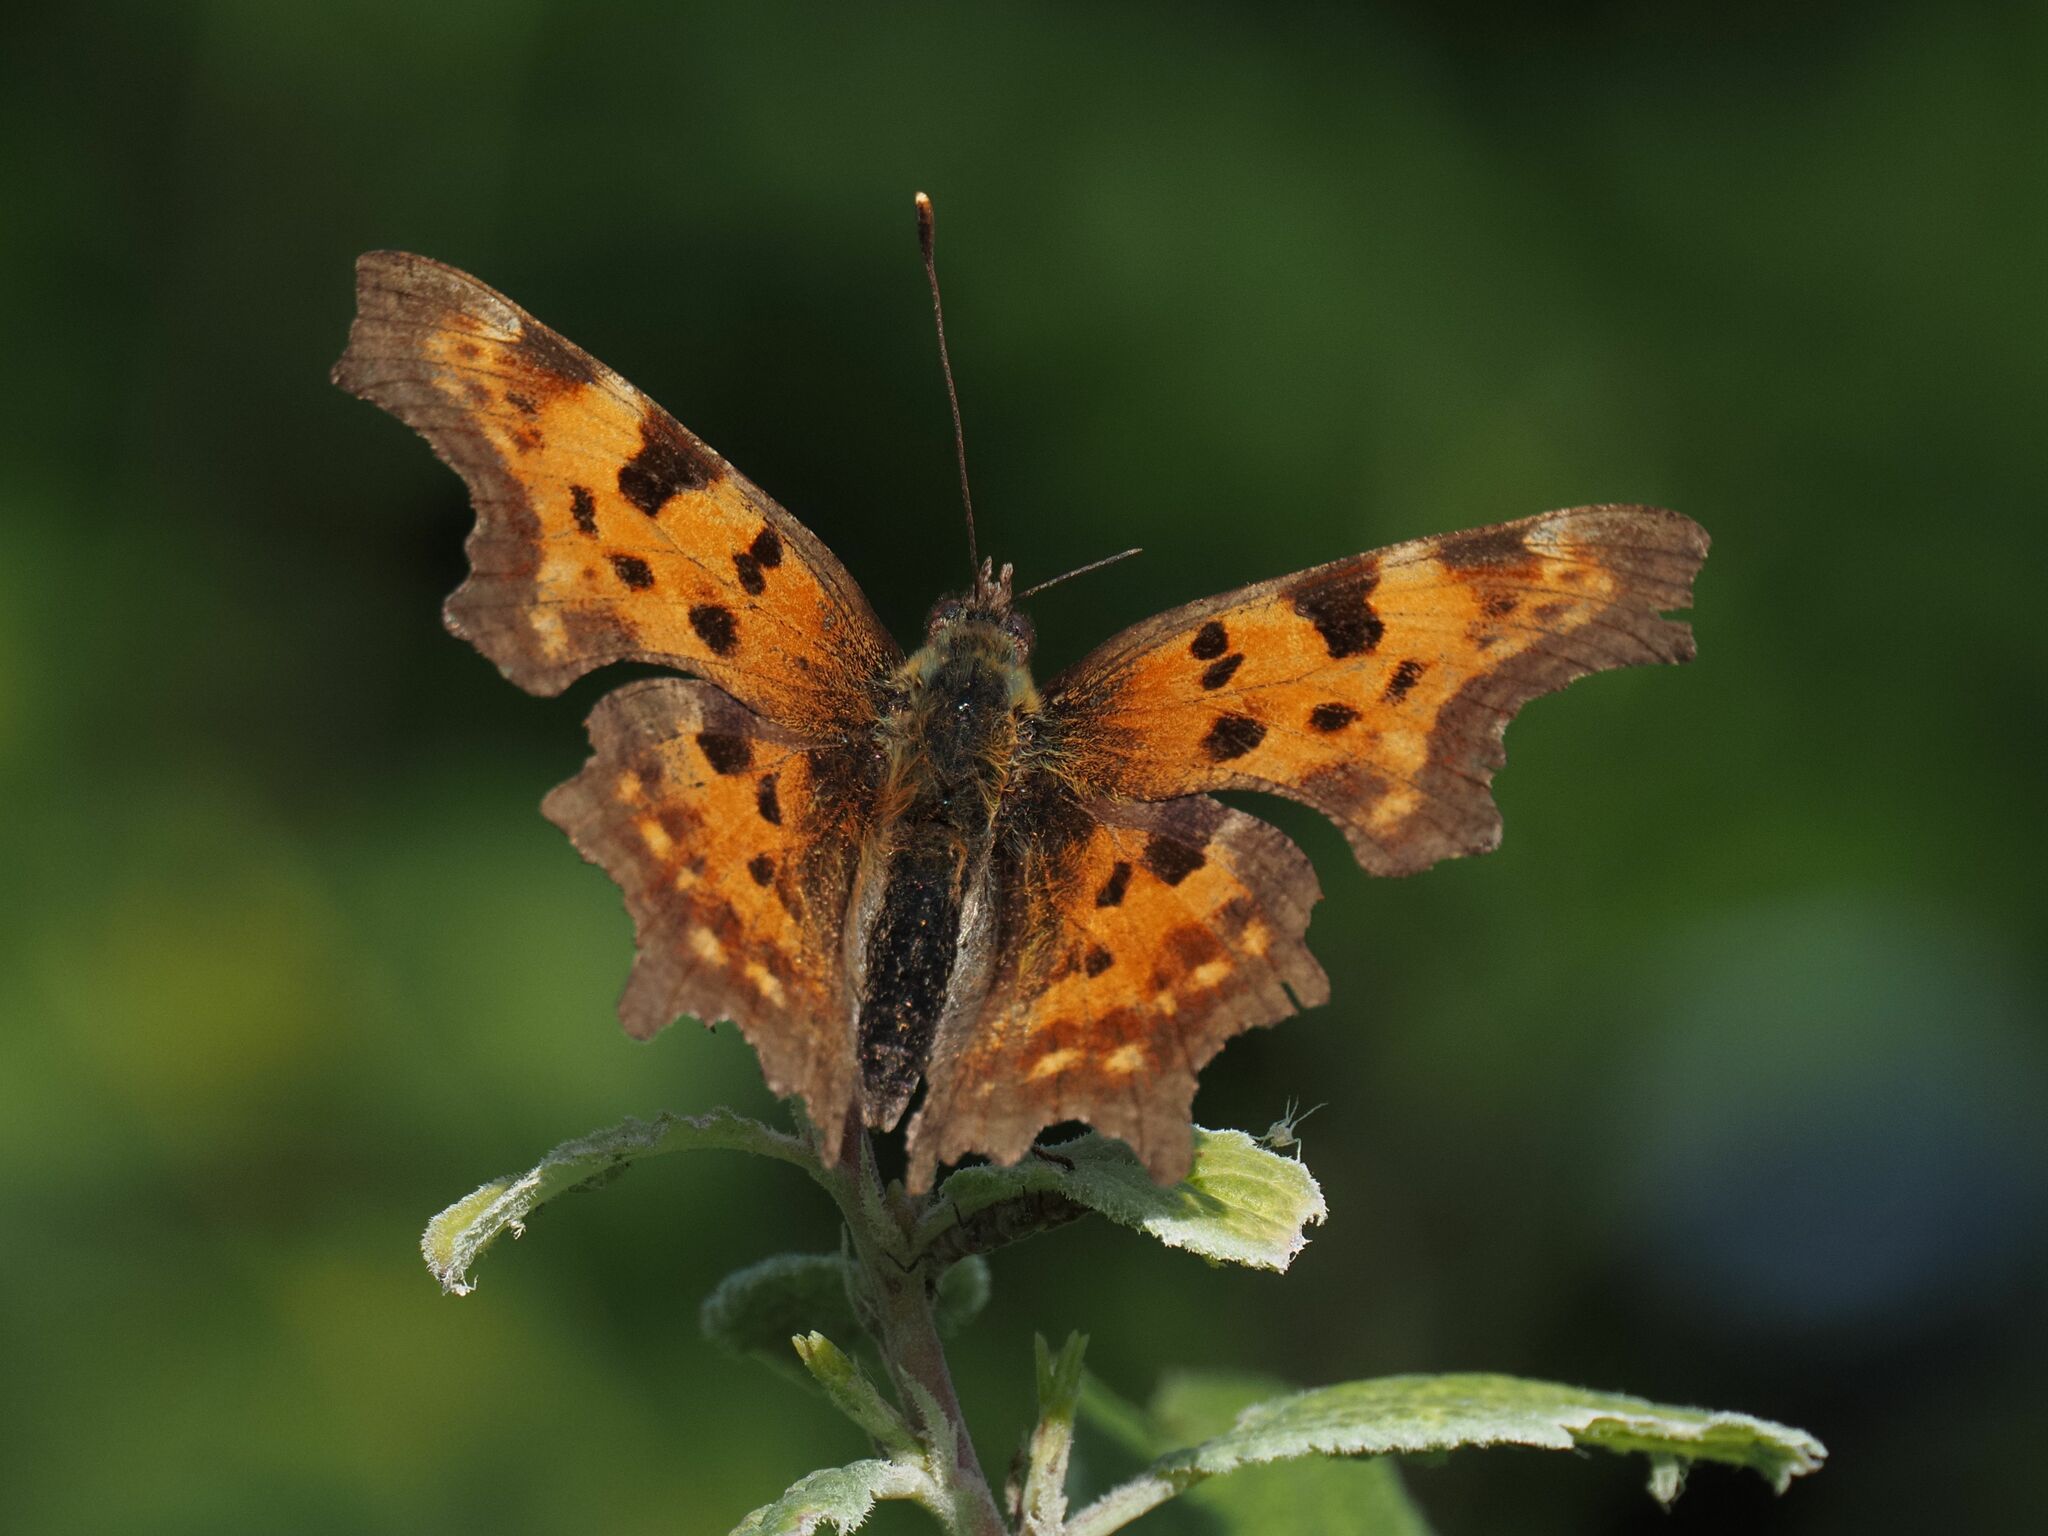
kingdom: Animalia
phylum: Arthropoda
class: Insecta
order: Lepidoptera
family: Nymphalidae
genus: Polygonia
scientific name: Polygonia c-album
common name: Comma
